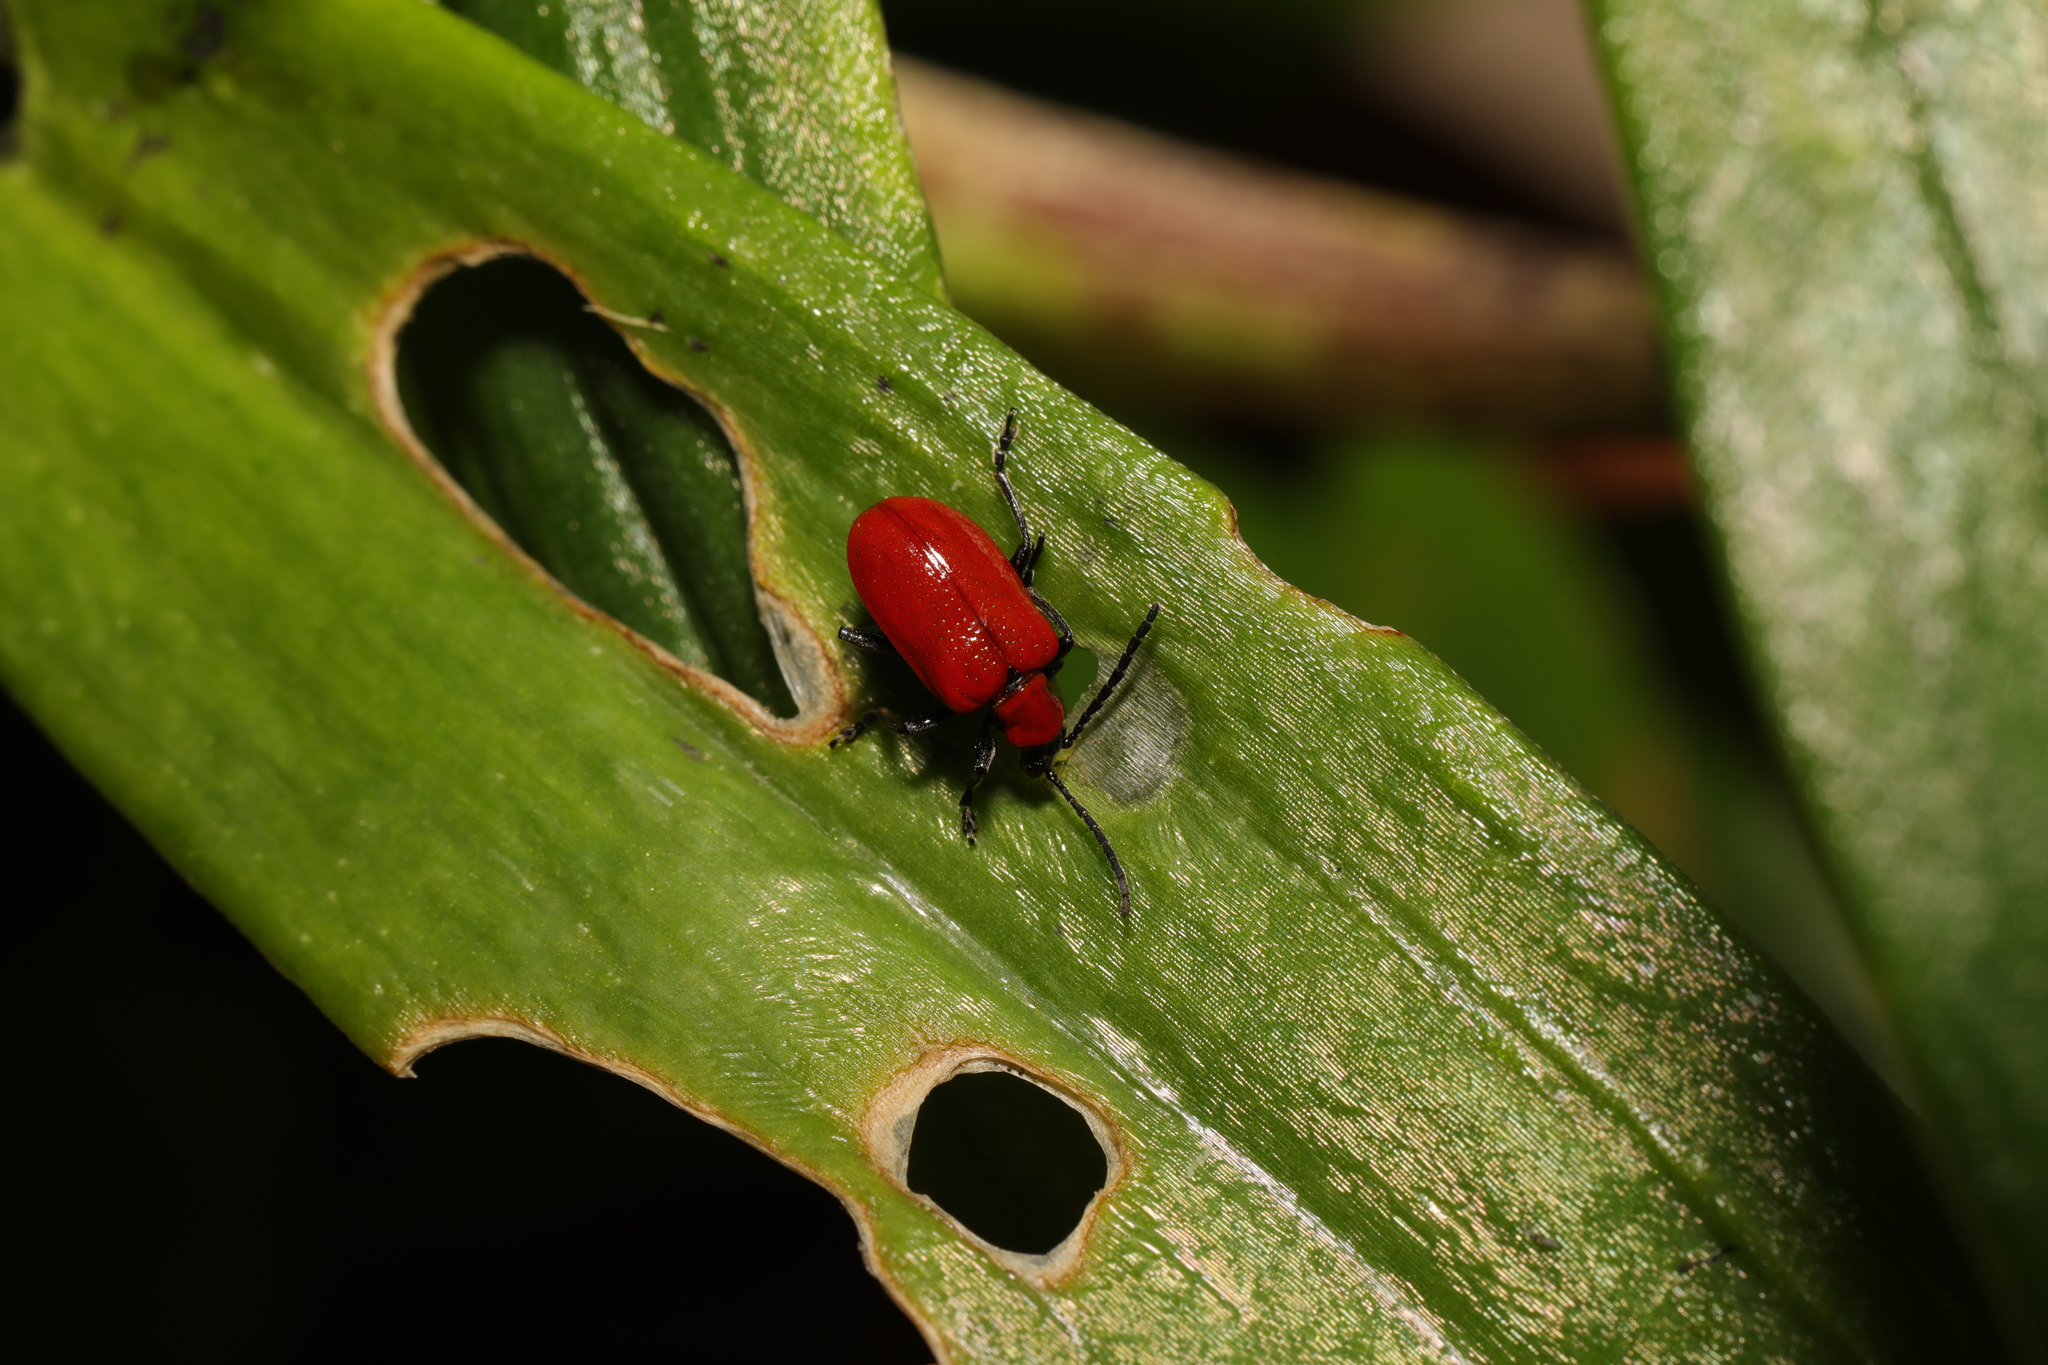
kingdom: Animalia
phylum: Arthropoda
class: Insecta
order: Coleoptera
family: Chrysomelidae
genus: Lilioceris
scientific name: Lilioceris lilii
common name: Lily beetle
